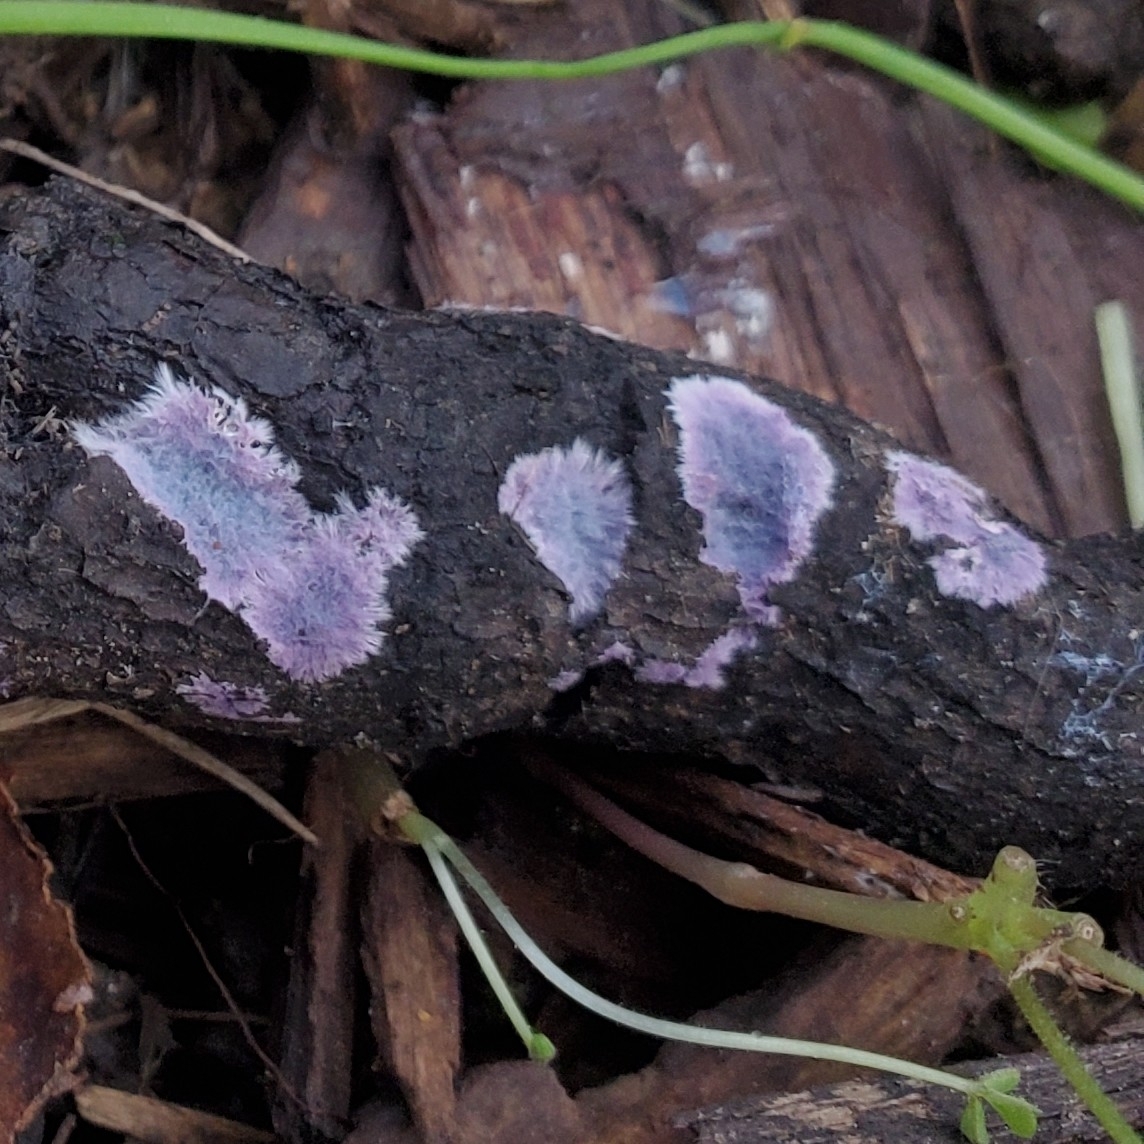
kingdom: Fungi
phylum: Basidiomycota
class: Agaricomycetes
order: Corticiales
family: Punctulariaceae
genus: Punctularia
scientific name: Punctularia atropurpurascens
